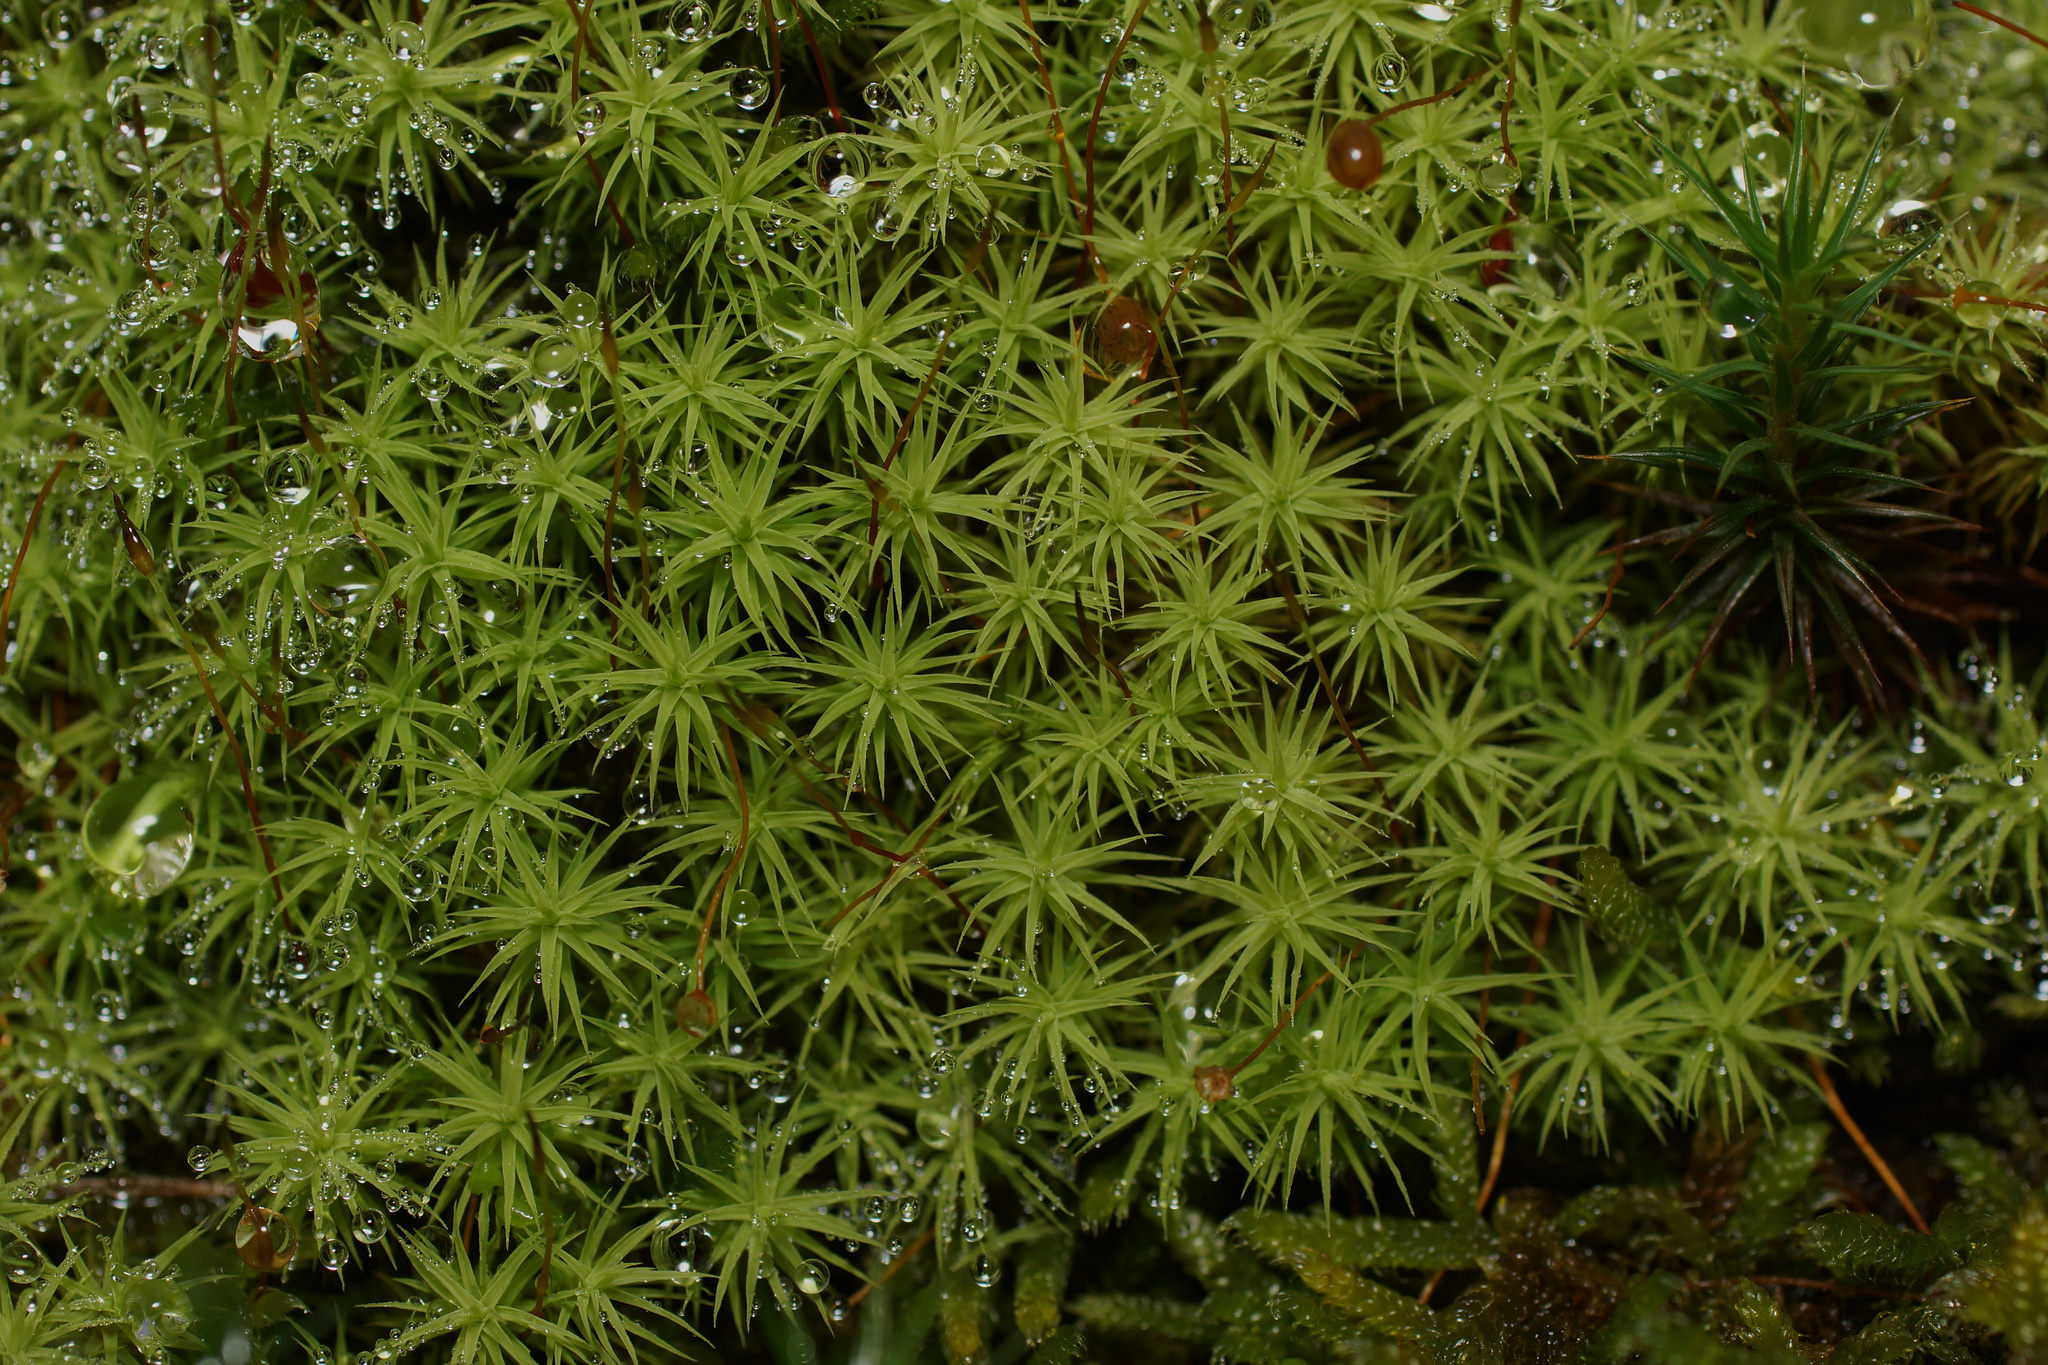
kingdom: Plantae
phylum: Bryophyta
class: Bryopsida
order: Bartramiales
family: Bartramiaceae
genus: Bartramia
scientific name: Bartramia ithyphylla
